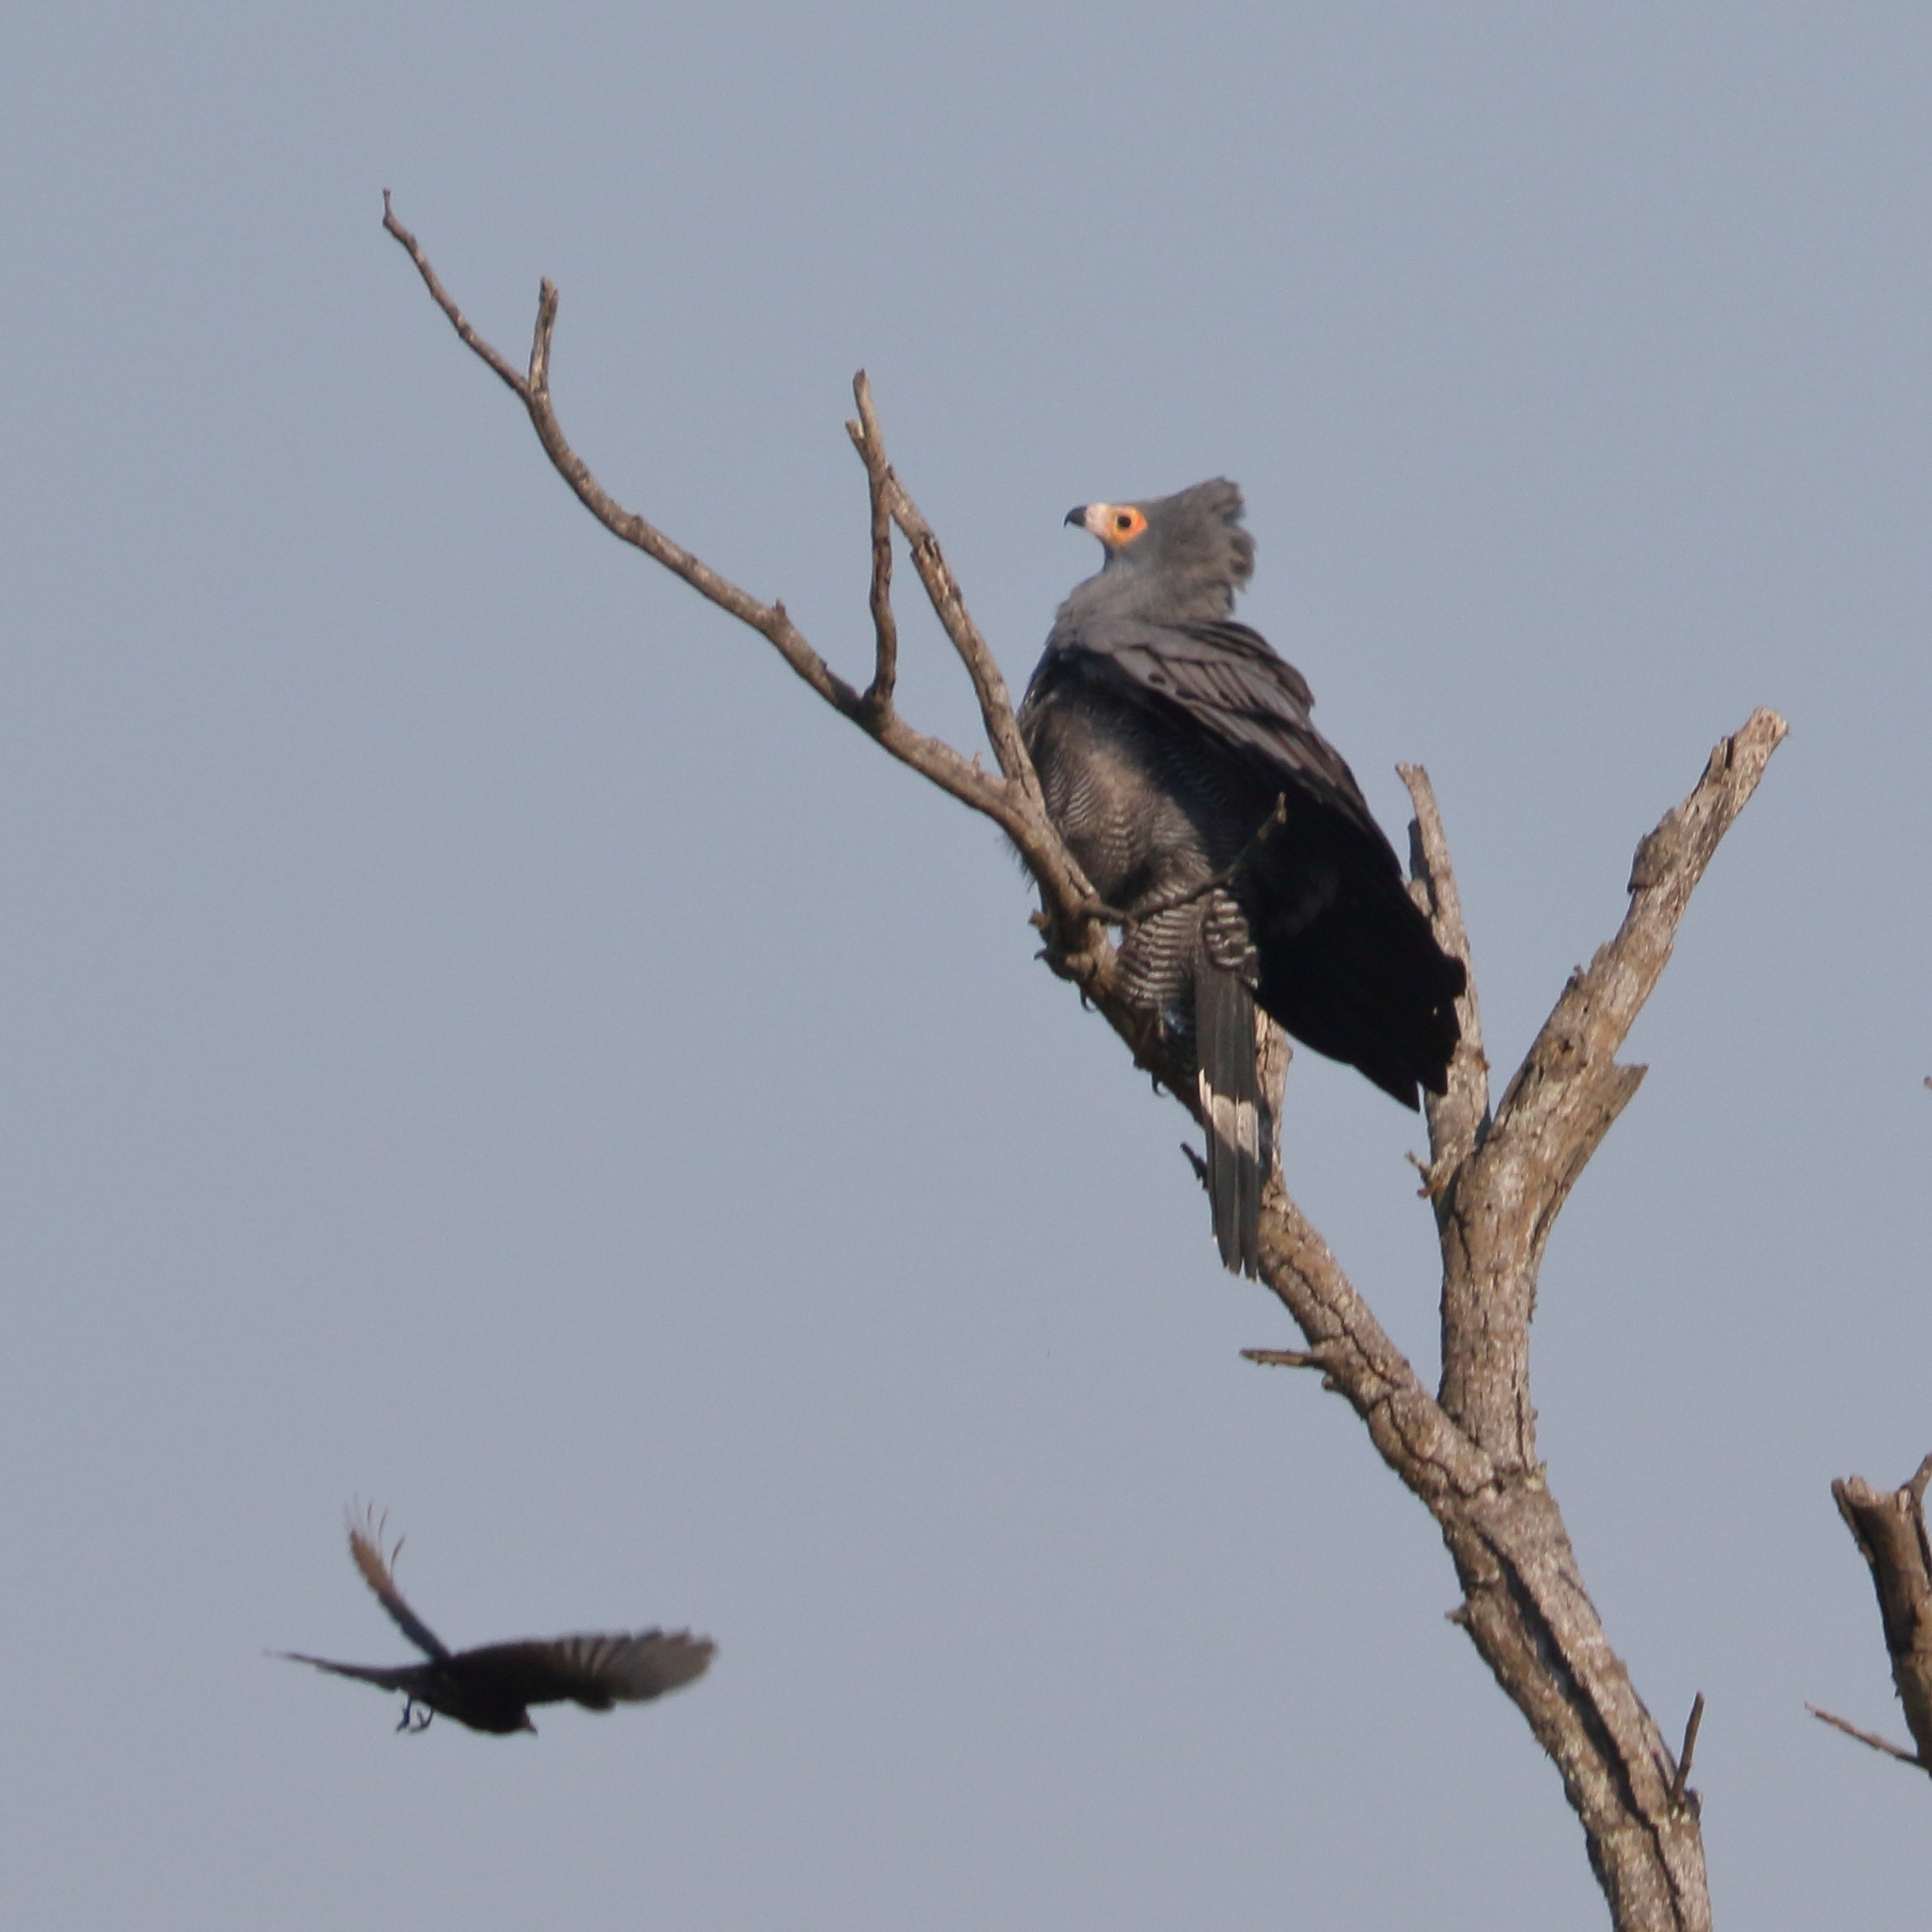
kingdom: Animalia
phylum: Chordata
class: Aves
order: Accipitriformes
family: Accipitridae
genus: Polyboroides
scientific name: Polyboroides typus
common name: African harrier-hawk
